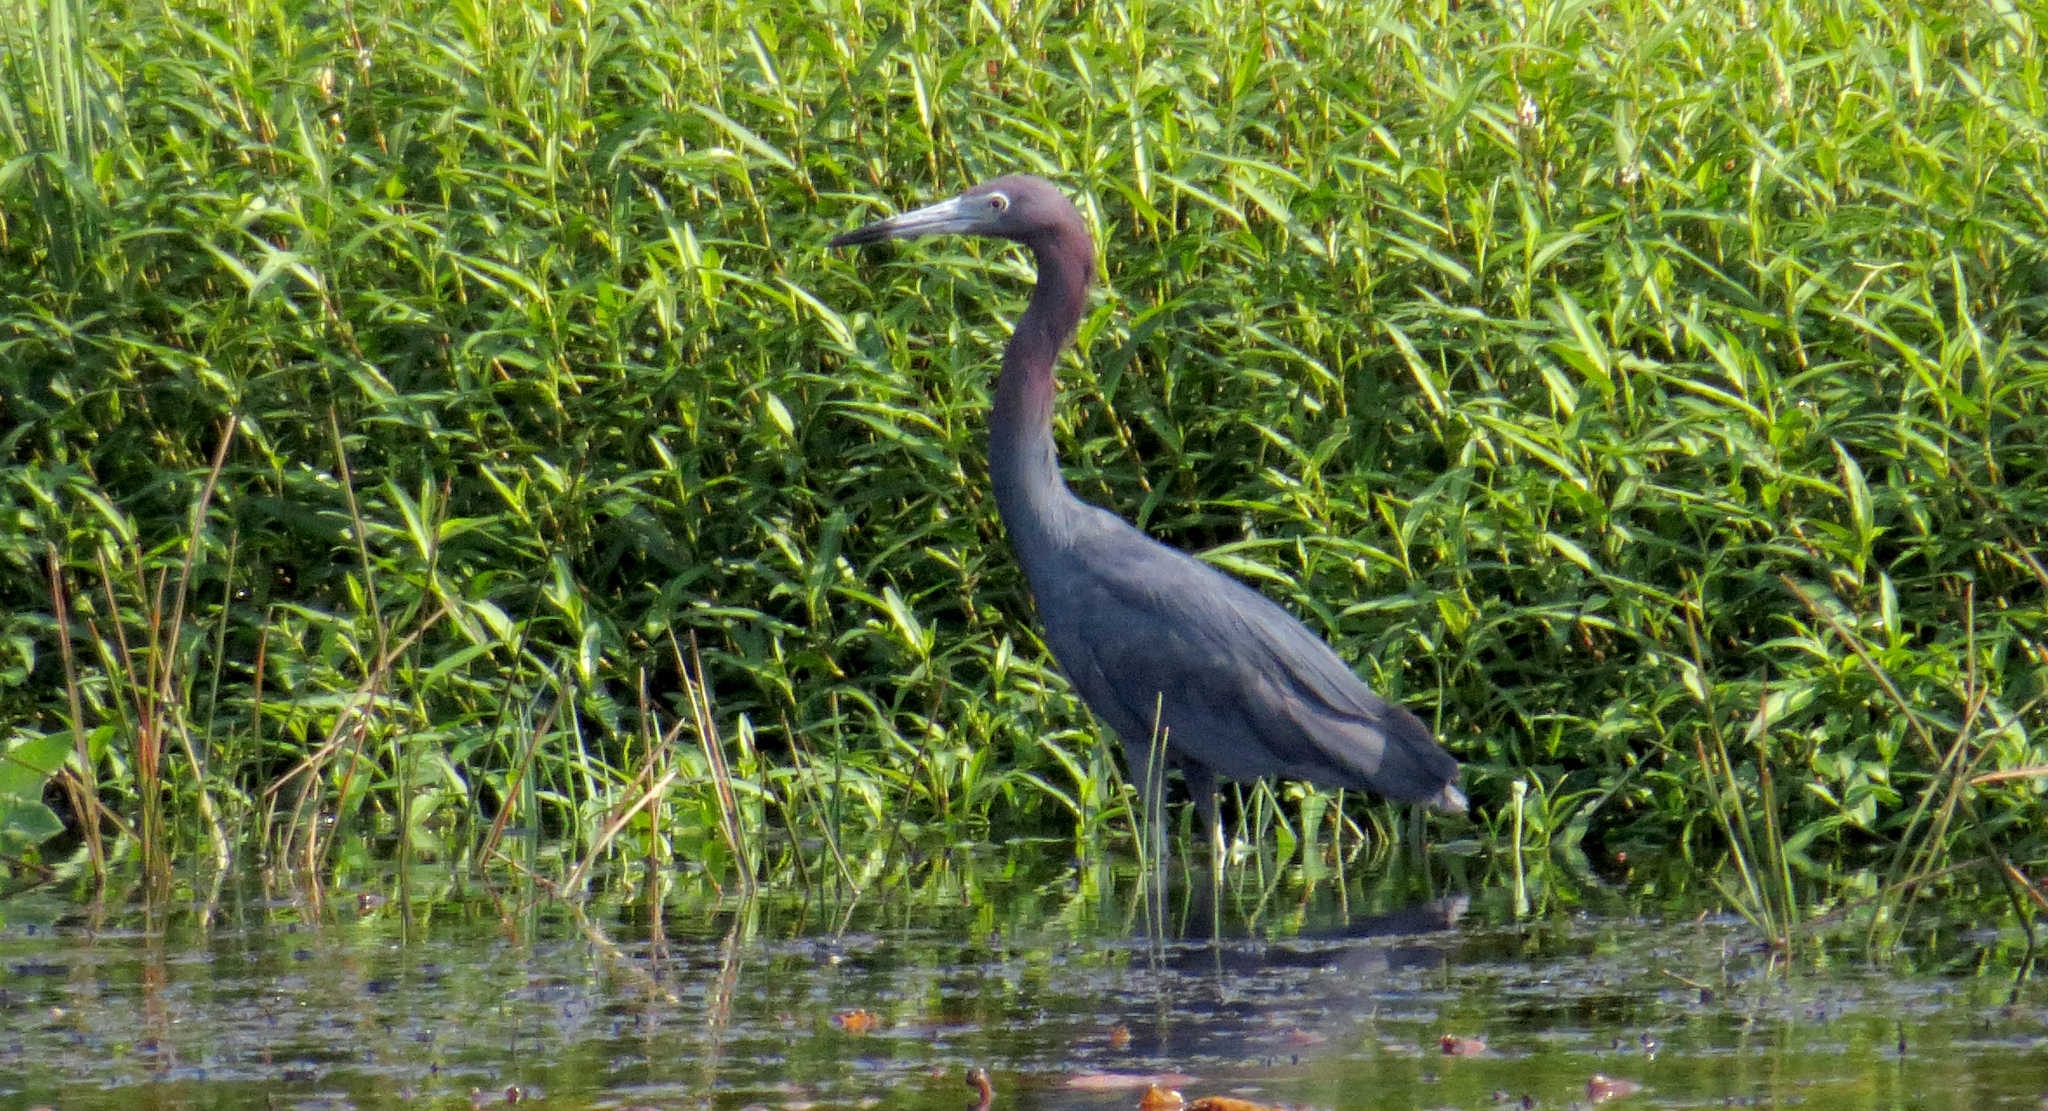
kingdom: Animalia
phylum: Chordata
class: Aves
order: Pelecaniformes
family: Ardeidae
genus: Egretta
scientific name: Egretta caerulea
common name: Little blue heron
